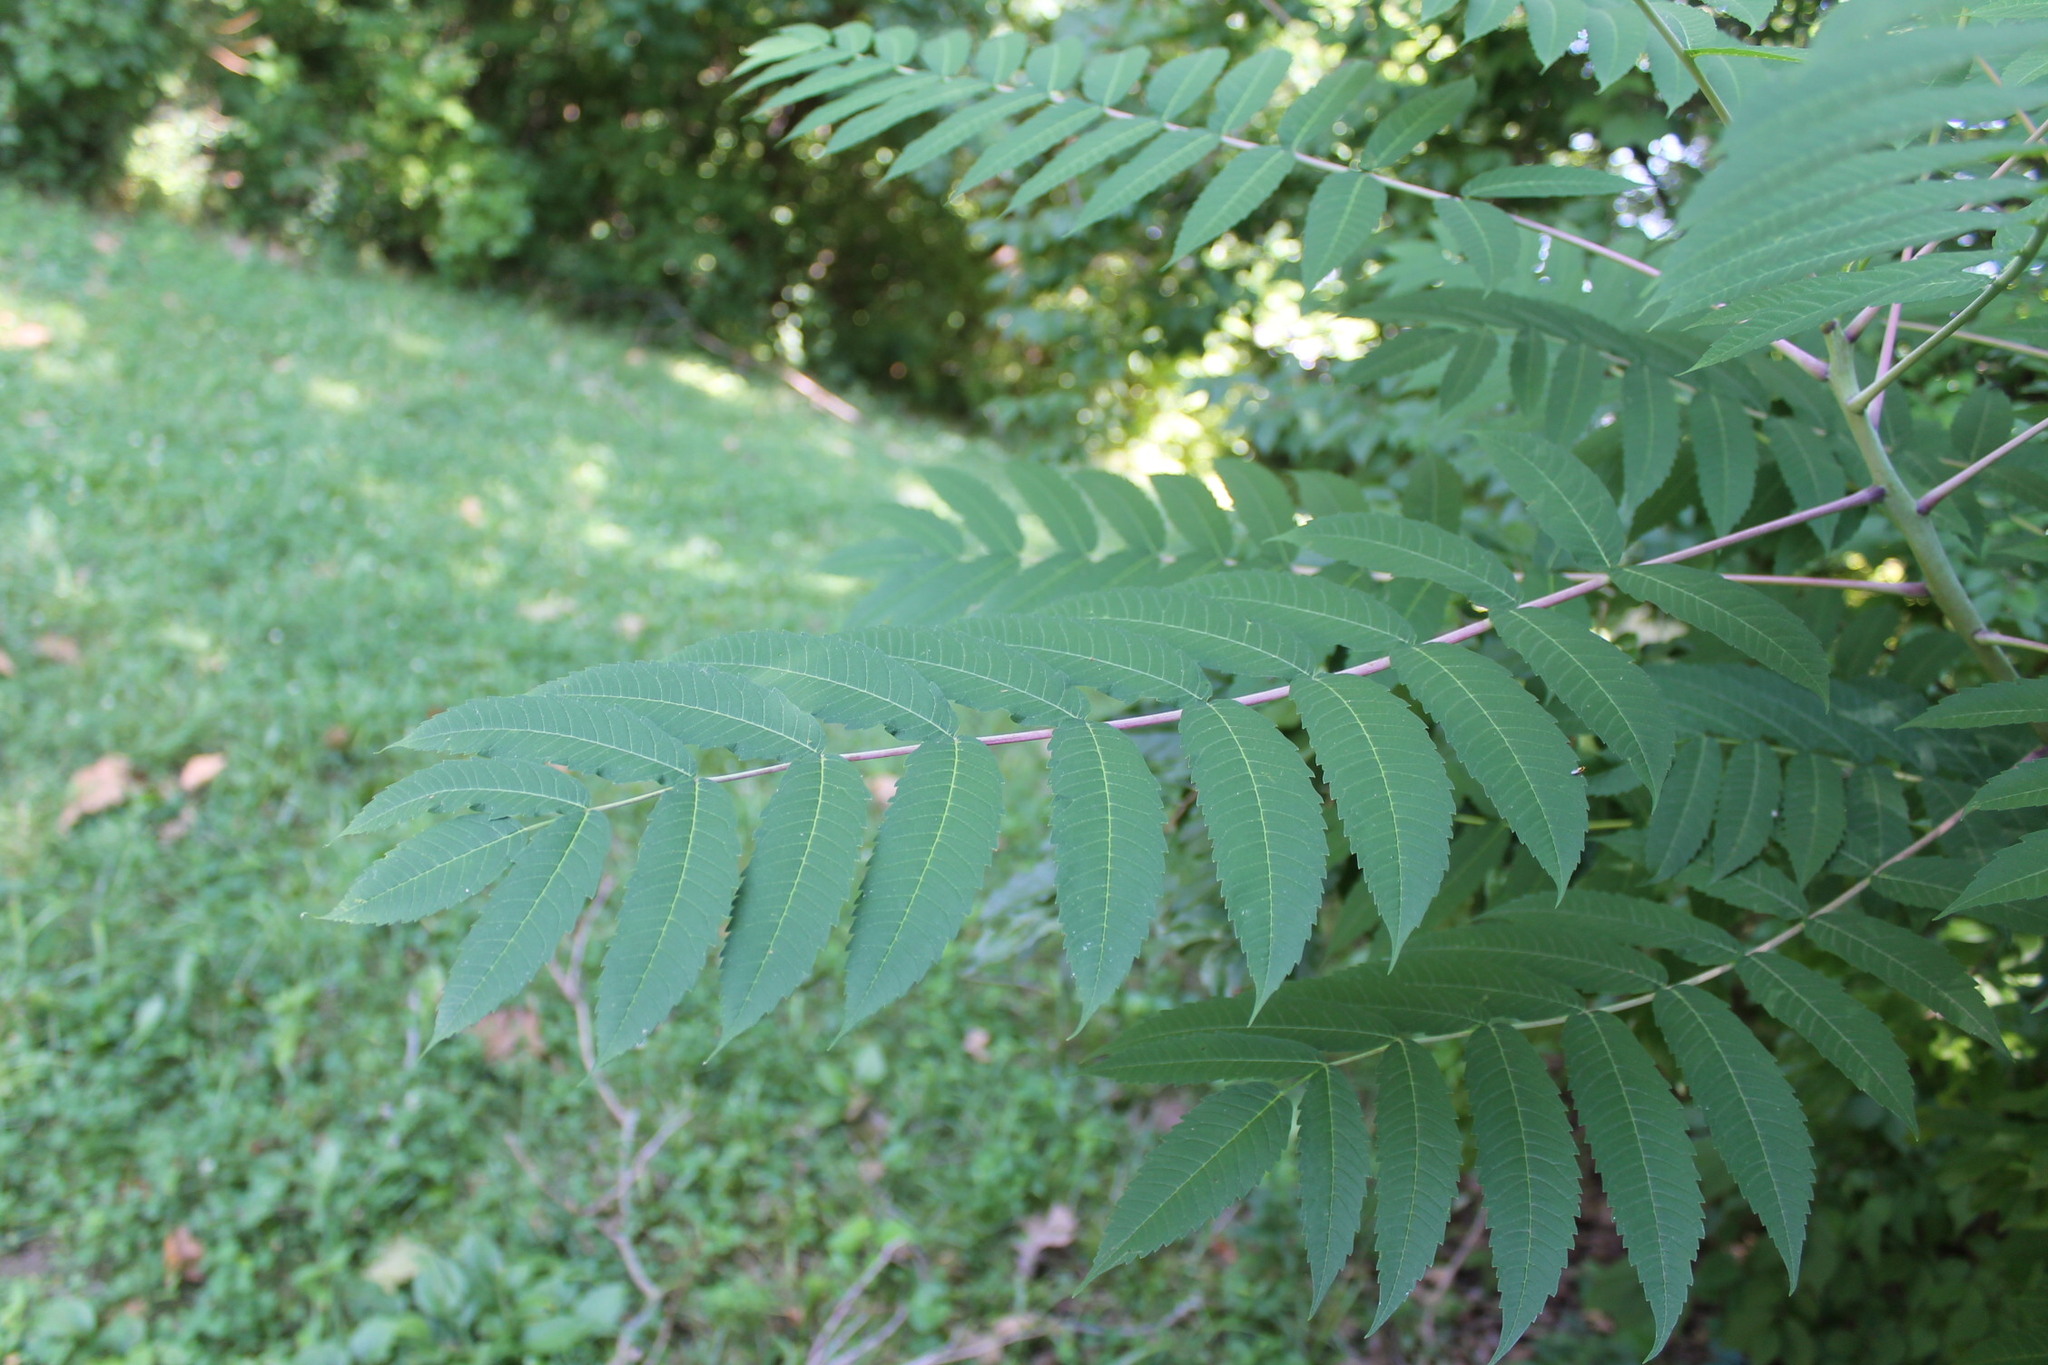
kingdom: Plantae
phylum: Tracheophyta
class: Magnoliopsida
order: Sapindales
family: Anacardiaceae
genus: Rhus
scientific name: Rhus glabra
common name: Scarlet sumac
